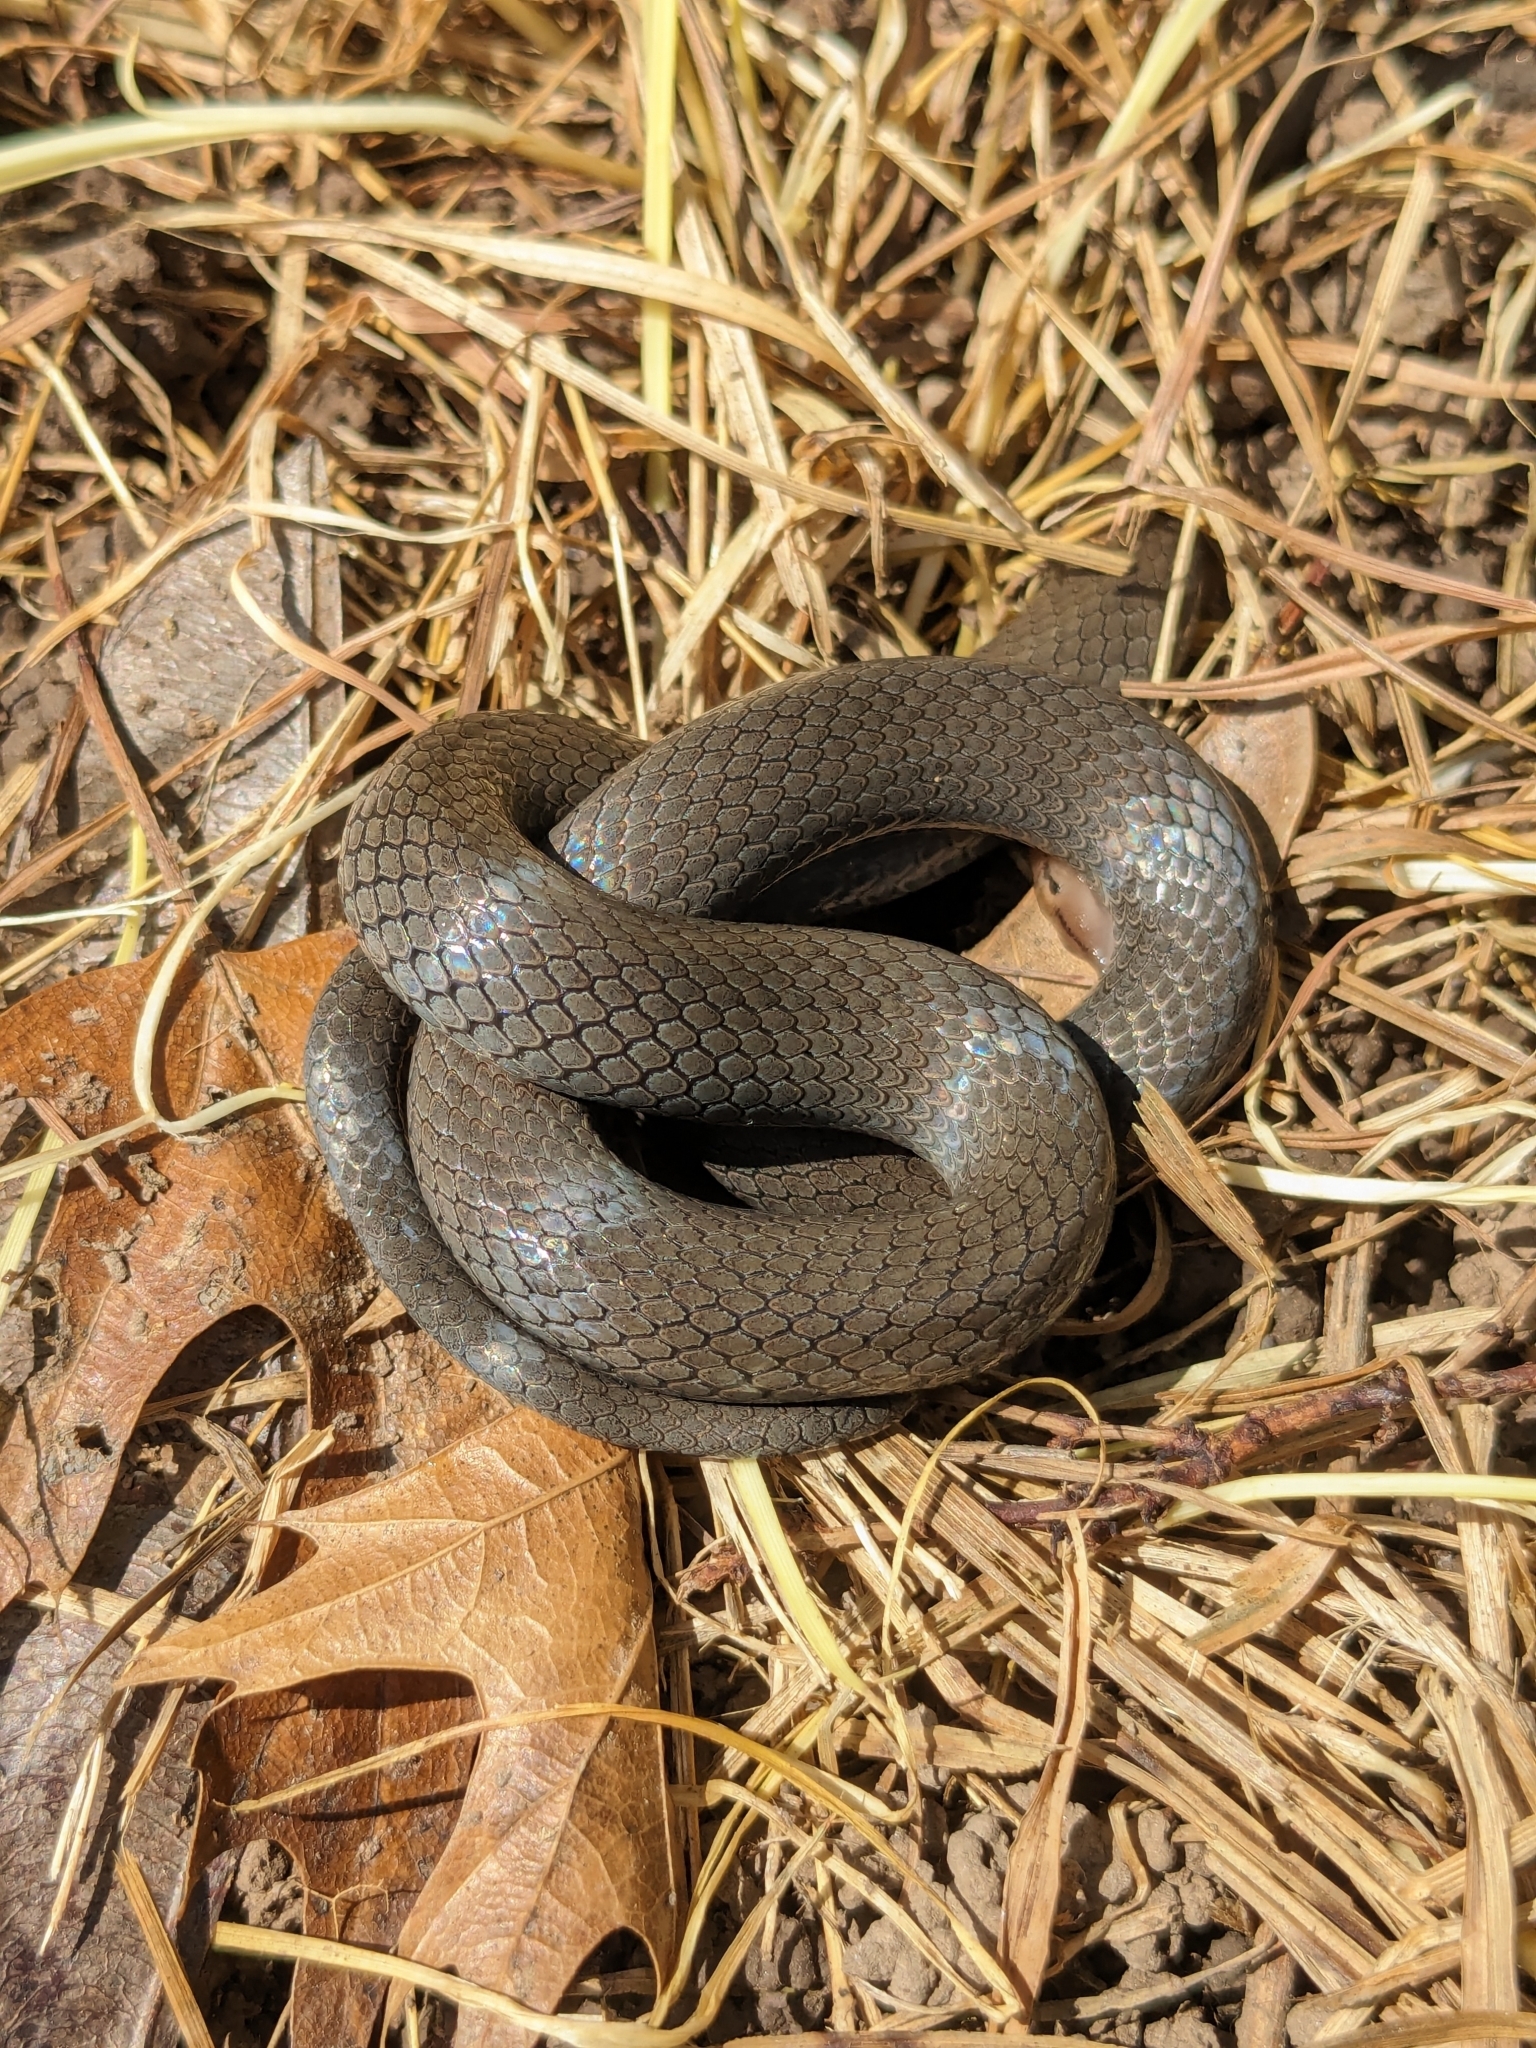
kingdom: Animalia
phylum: Chordata
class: Squamata
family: Colubridae
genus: Diadophis
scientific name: Diadophis punctatus
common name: Ringneck snake
